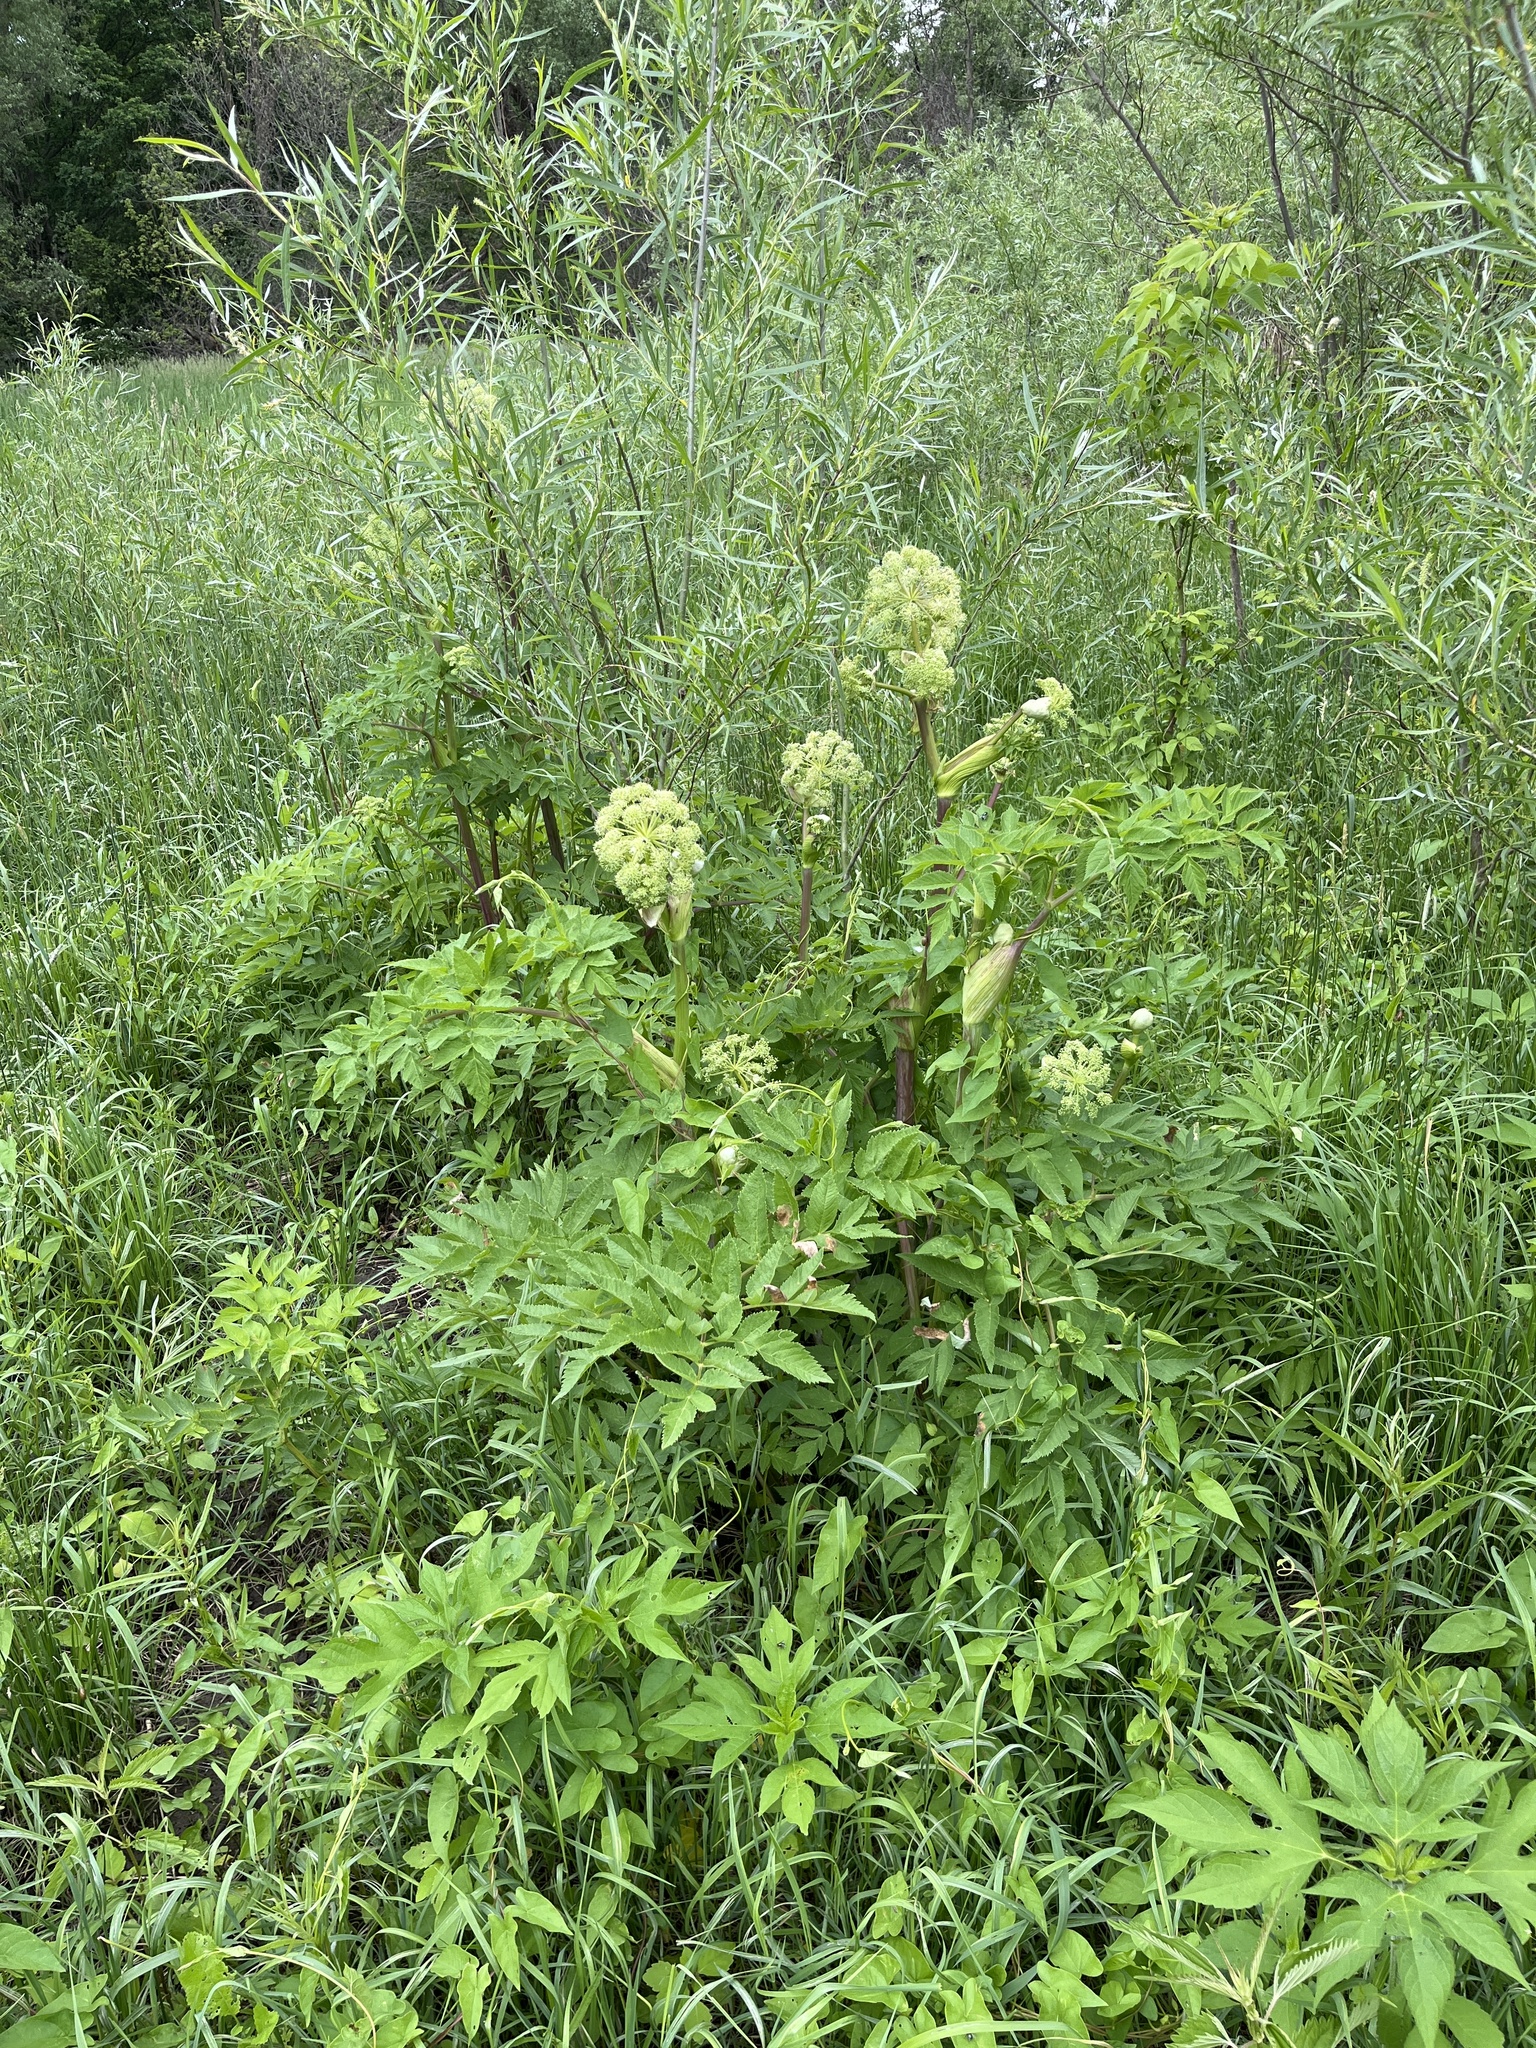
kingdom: Plantae
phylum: Tracheophyta
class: Magnoliopsida
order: Apiales
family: Apiaceae
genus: Angelica
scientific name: Angelica atropurpurea
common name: Great angelica
